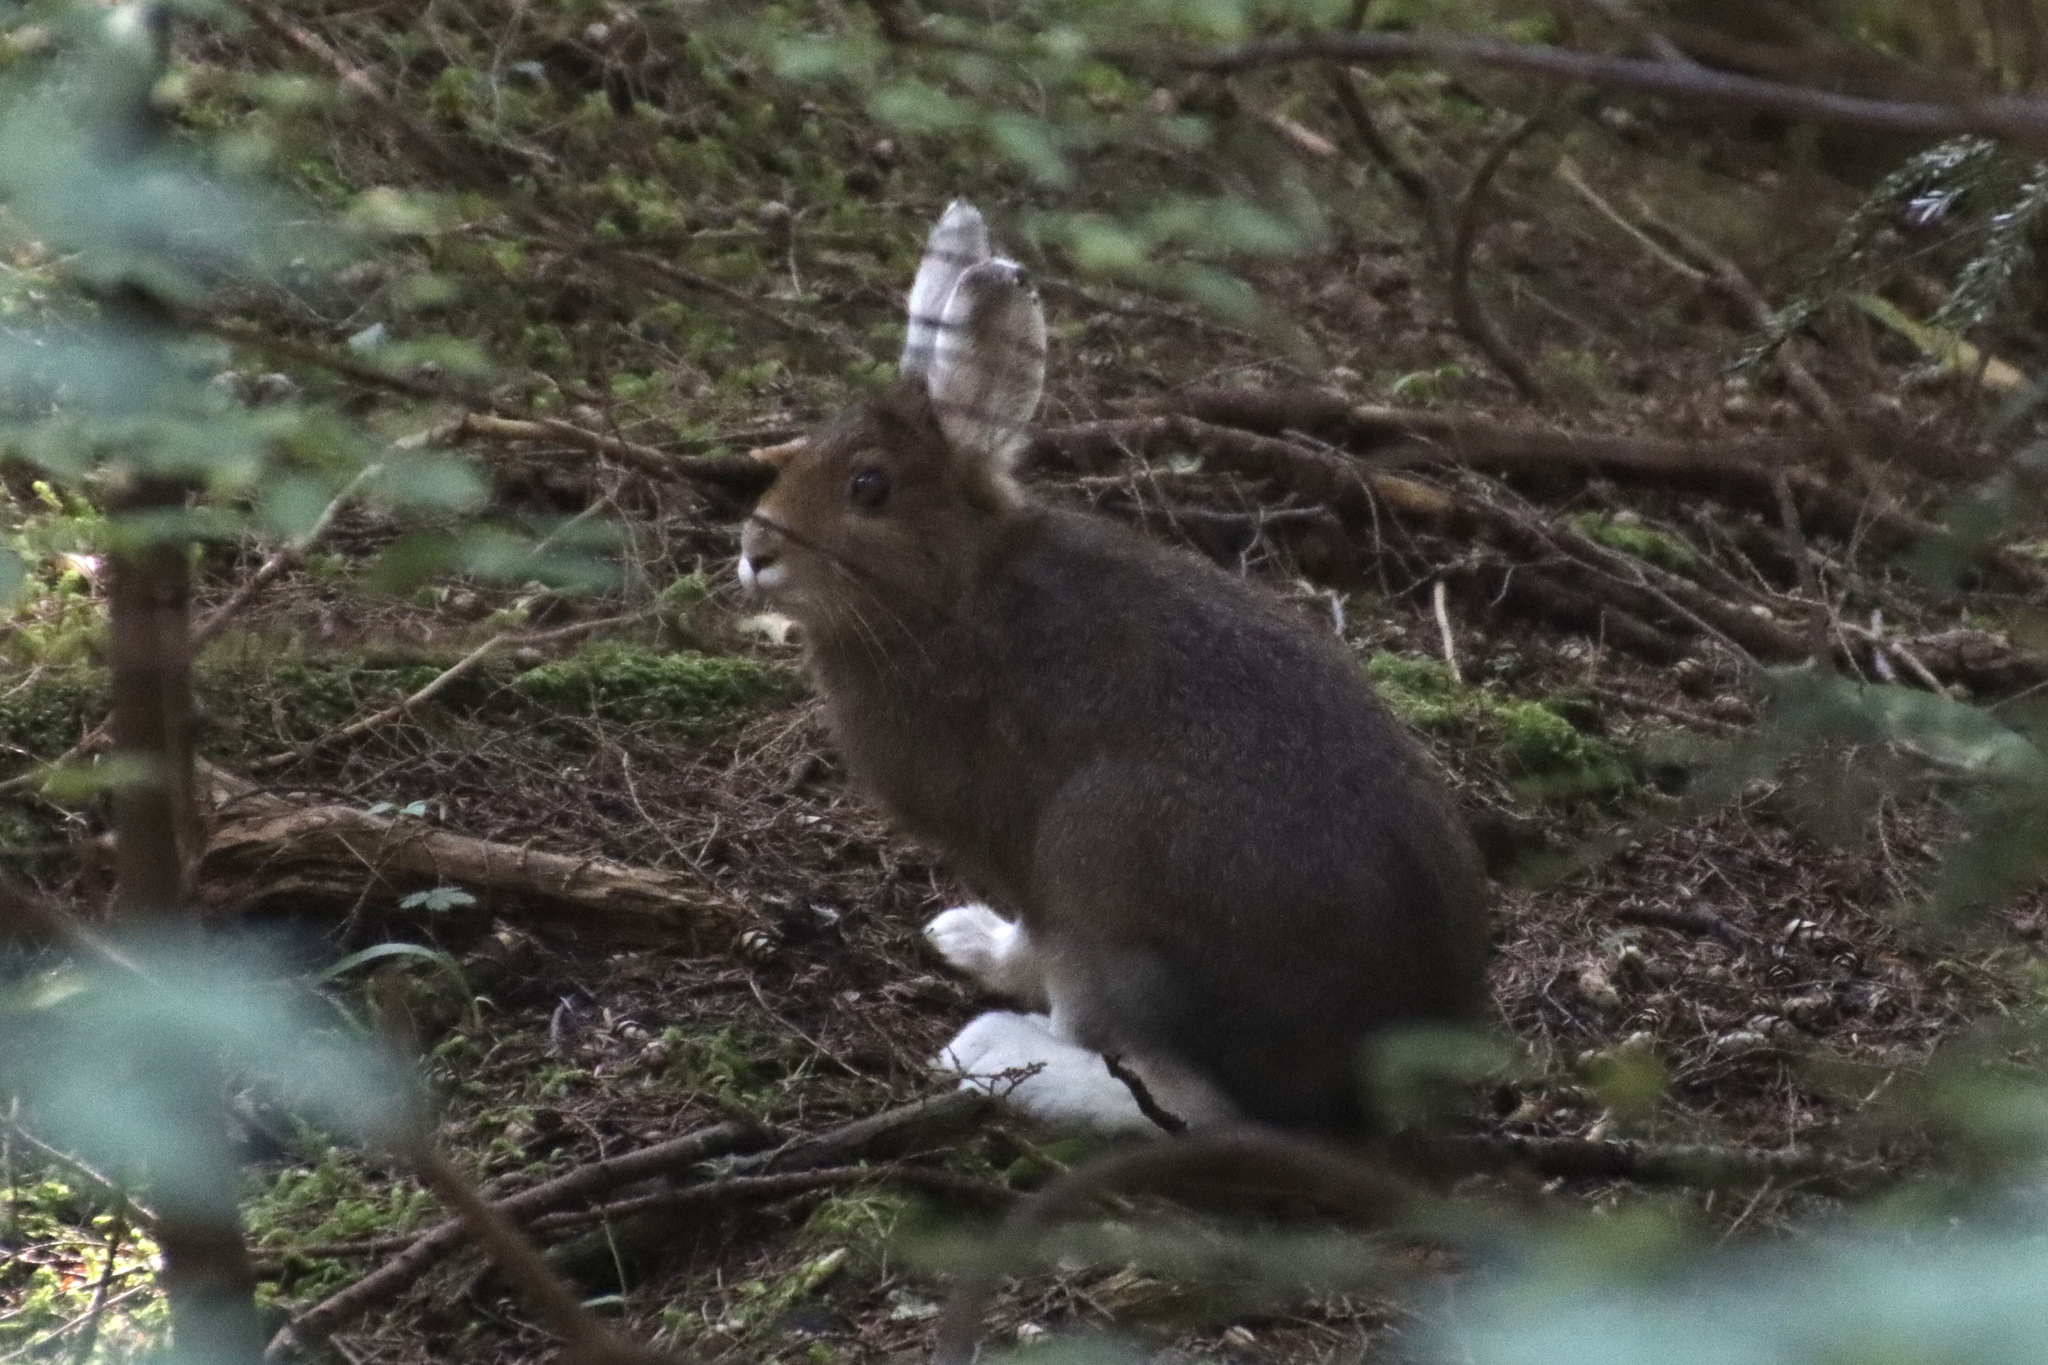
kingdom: Animalia
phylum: Chordata
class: Mammalia
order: Lagomorpha
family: Leporidae
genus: Lepus
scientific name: Lepus americanus
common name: Snowshoe hare
